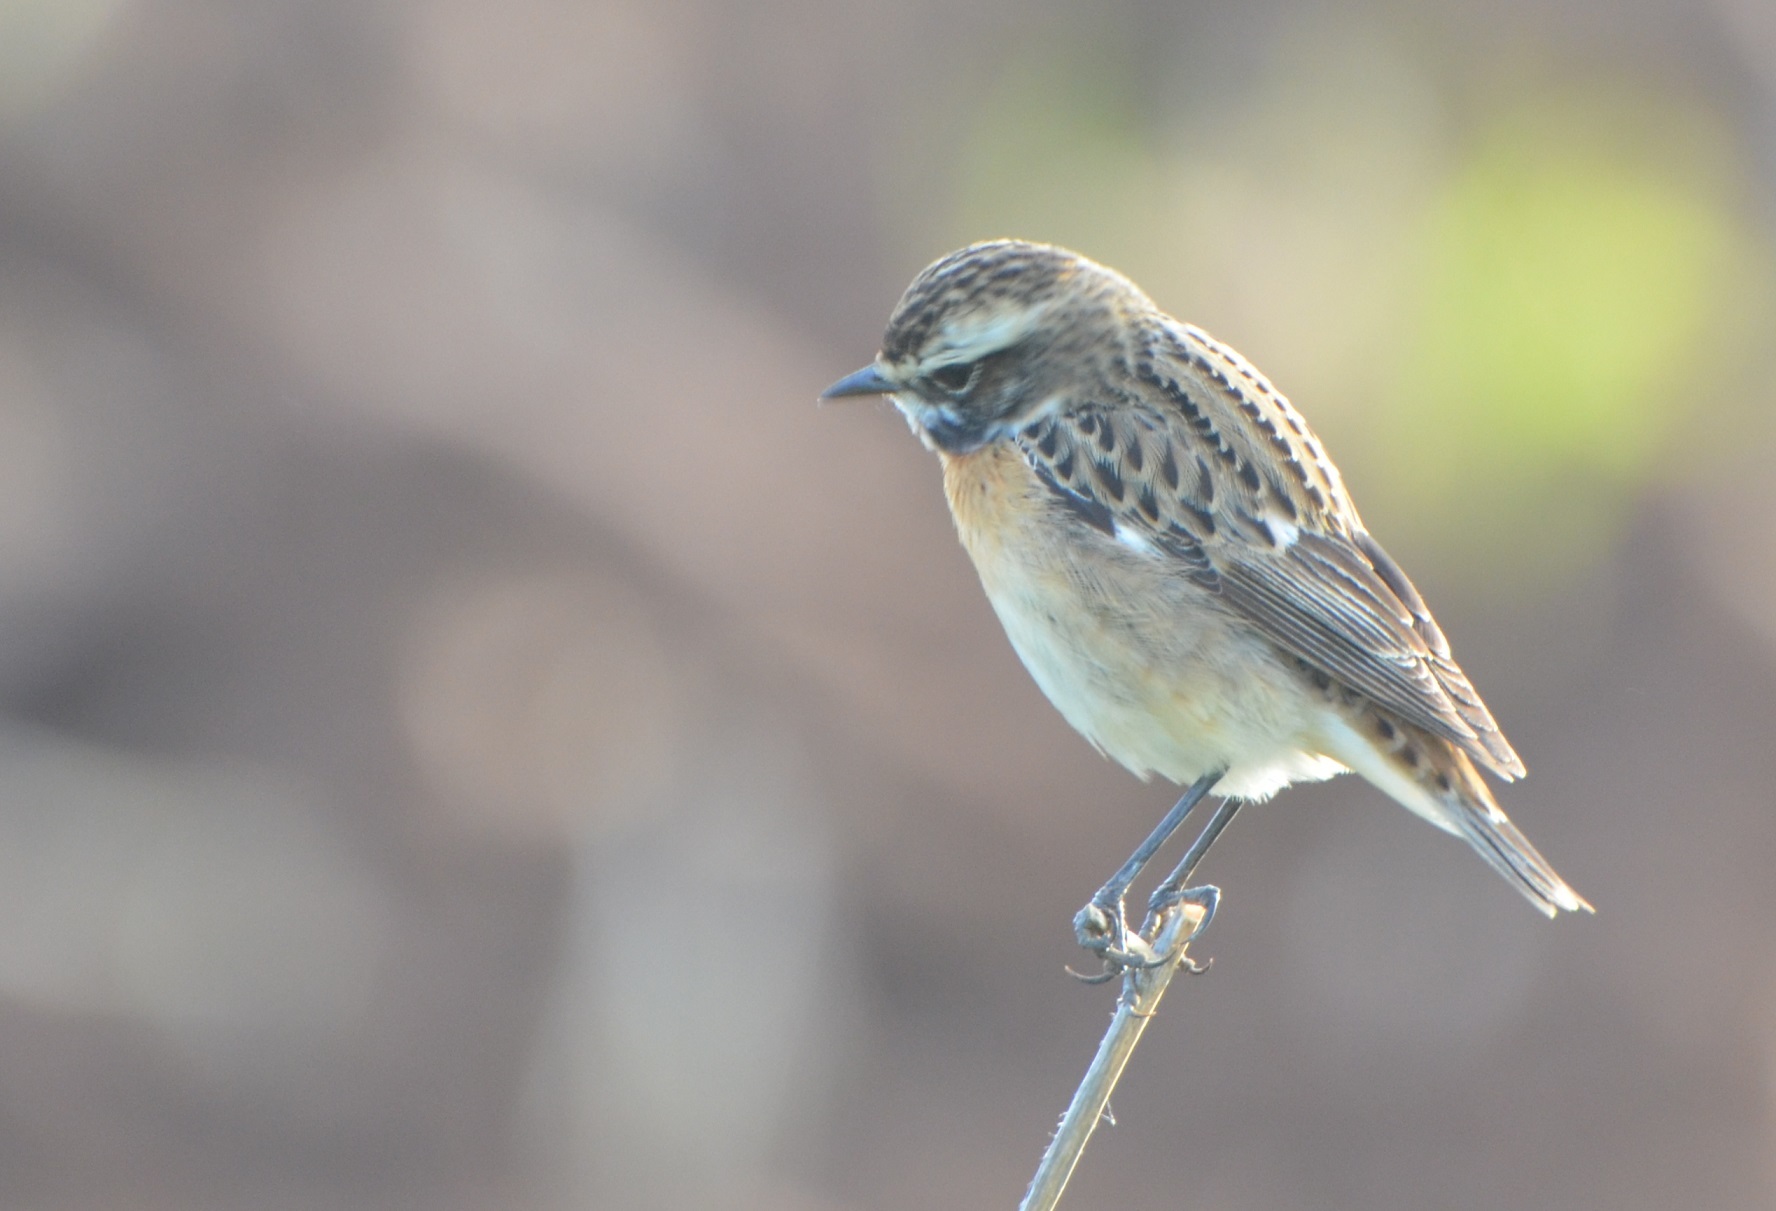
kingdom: Animalia
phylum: Chordata
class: Aves
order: Passeriformes
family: Muscicapidae
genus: Saxicola
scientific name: Saxicola rubetra
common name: Whinchat
